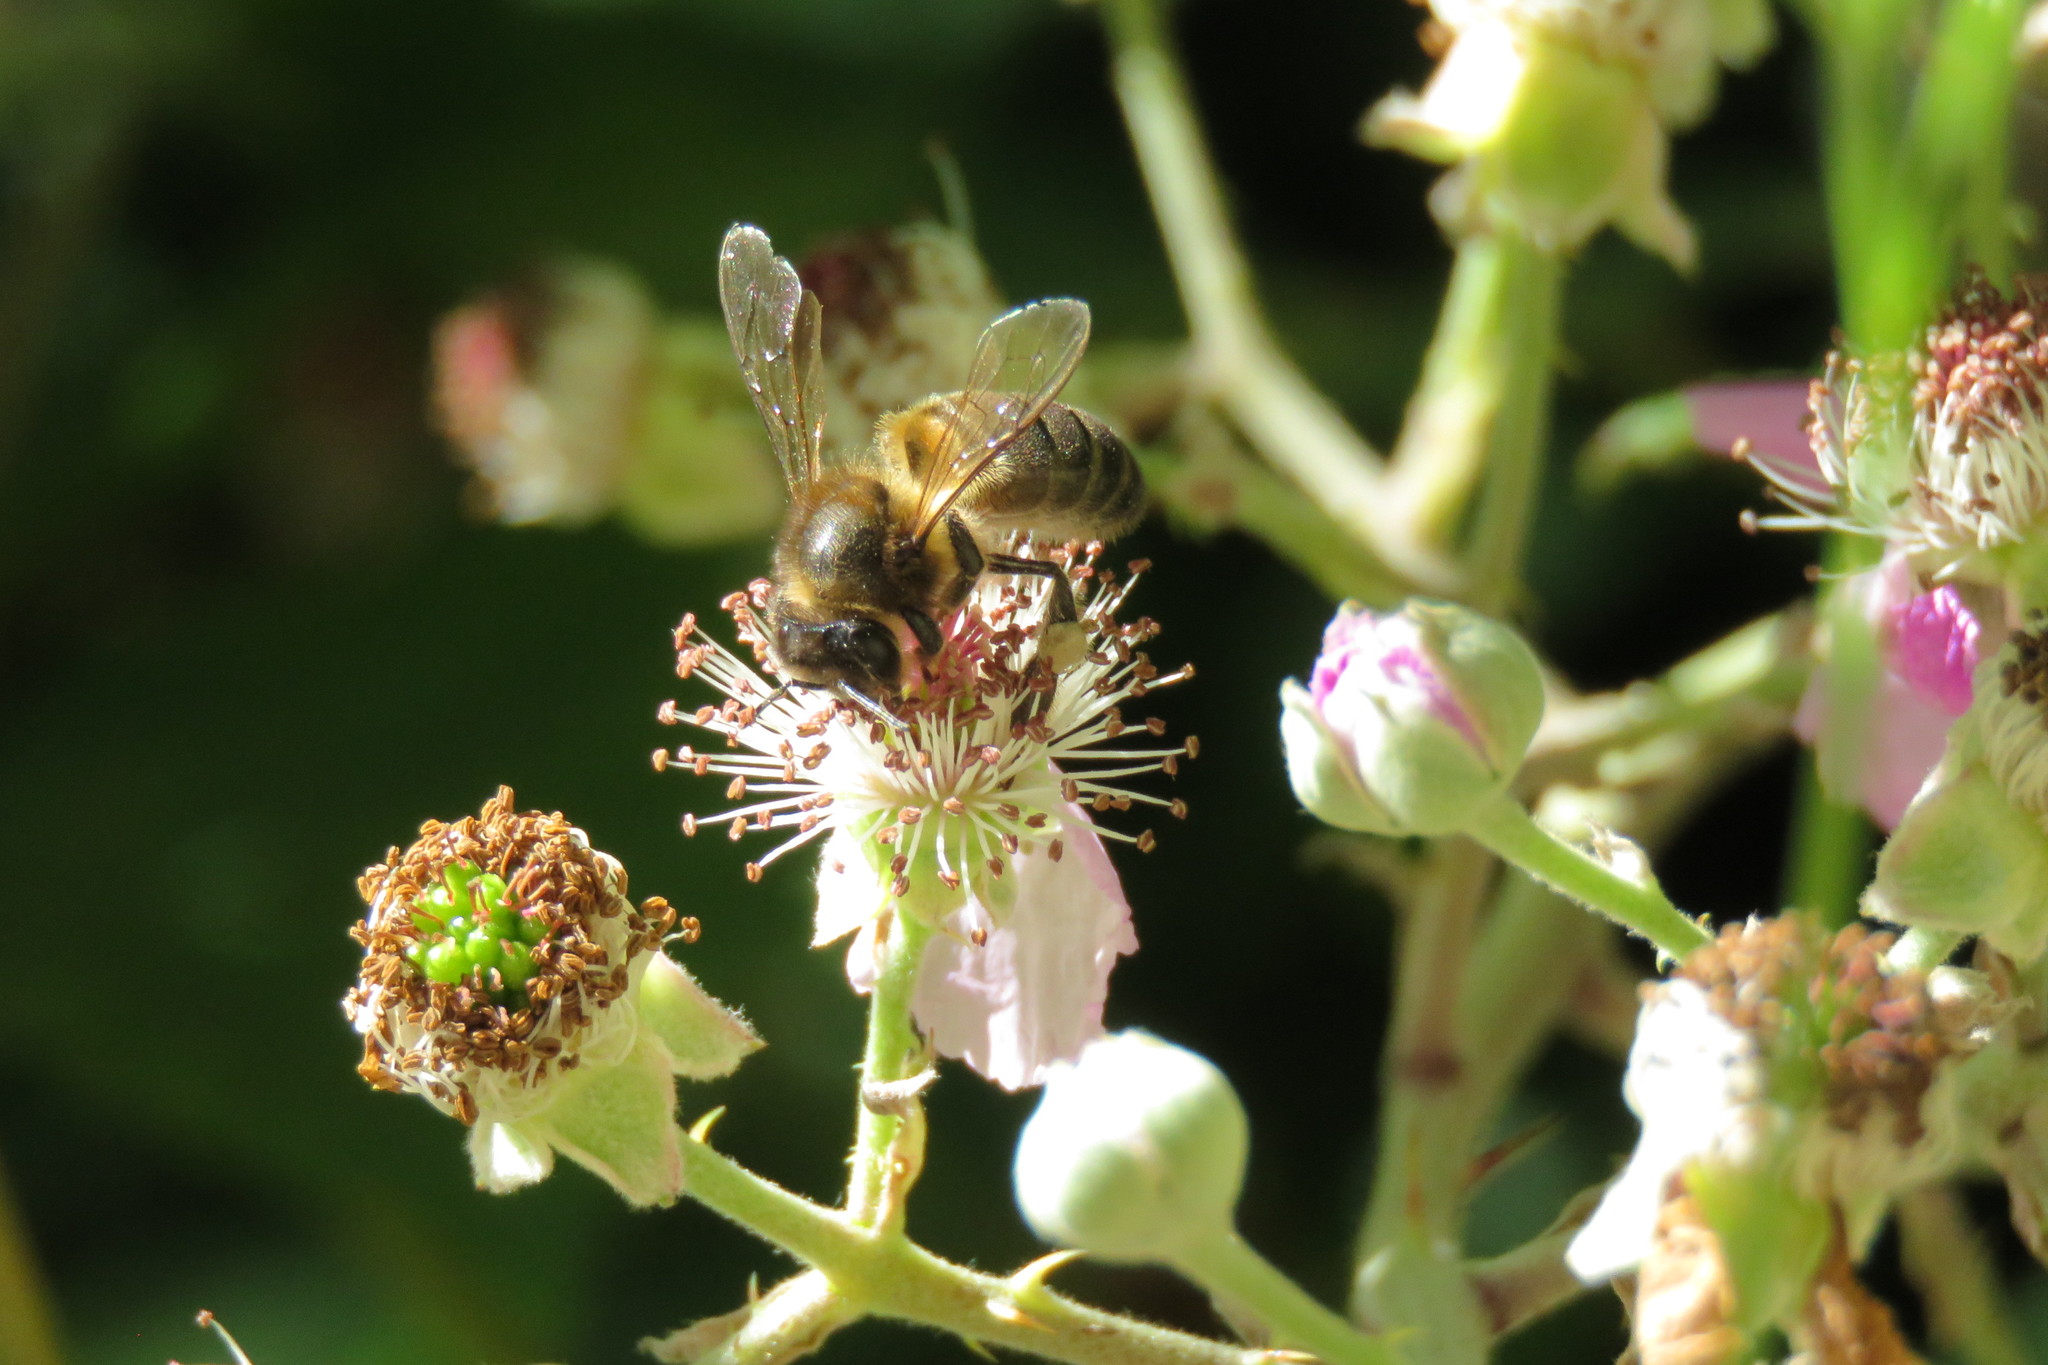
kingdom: Animalia
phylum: Arthropoda
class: Insecta
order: Hymenoptera
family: Apidae
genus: Apis
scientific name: Apis mellifera
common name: Honey bee
